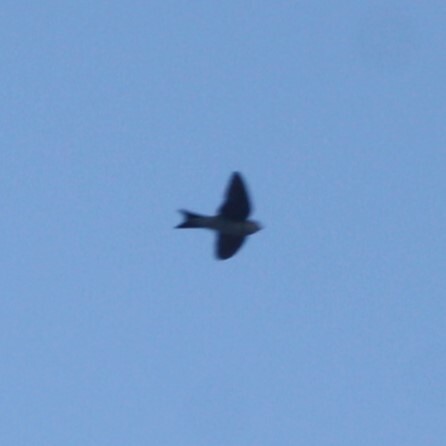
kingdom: Animalia
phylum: Chordata
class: Aves
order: Passeriformes
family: Hirundinidae
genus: Delichon
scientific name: Delichon urbicum
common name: Common house martin
